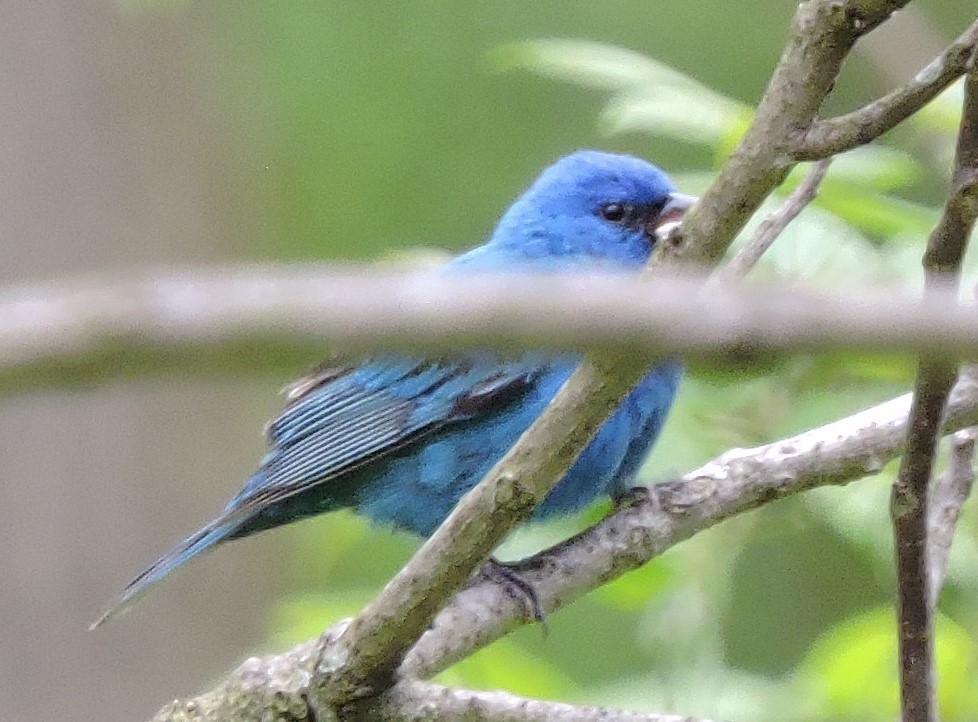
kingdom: Animalia
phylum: Chordata
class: Aves
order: Passeriformes
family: Cardinalidae
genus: Passerina
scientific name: Passerina cyanea
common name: Indigo bunting
